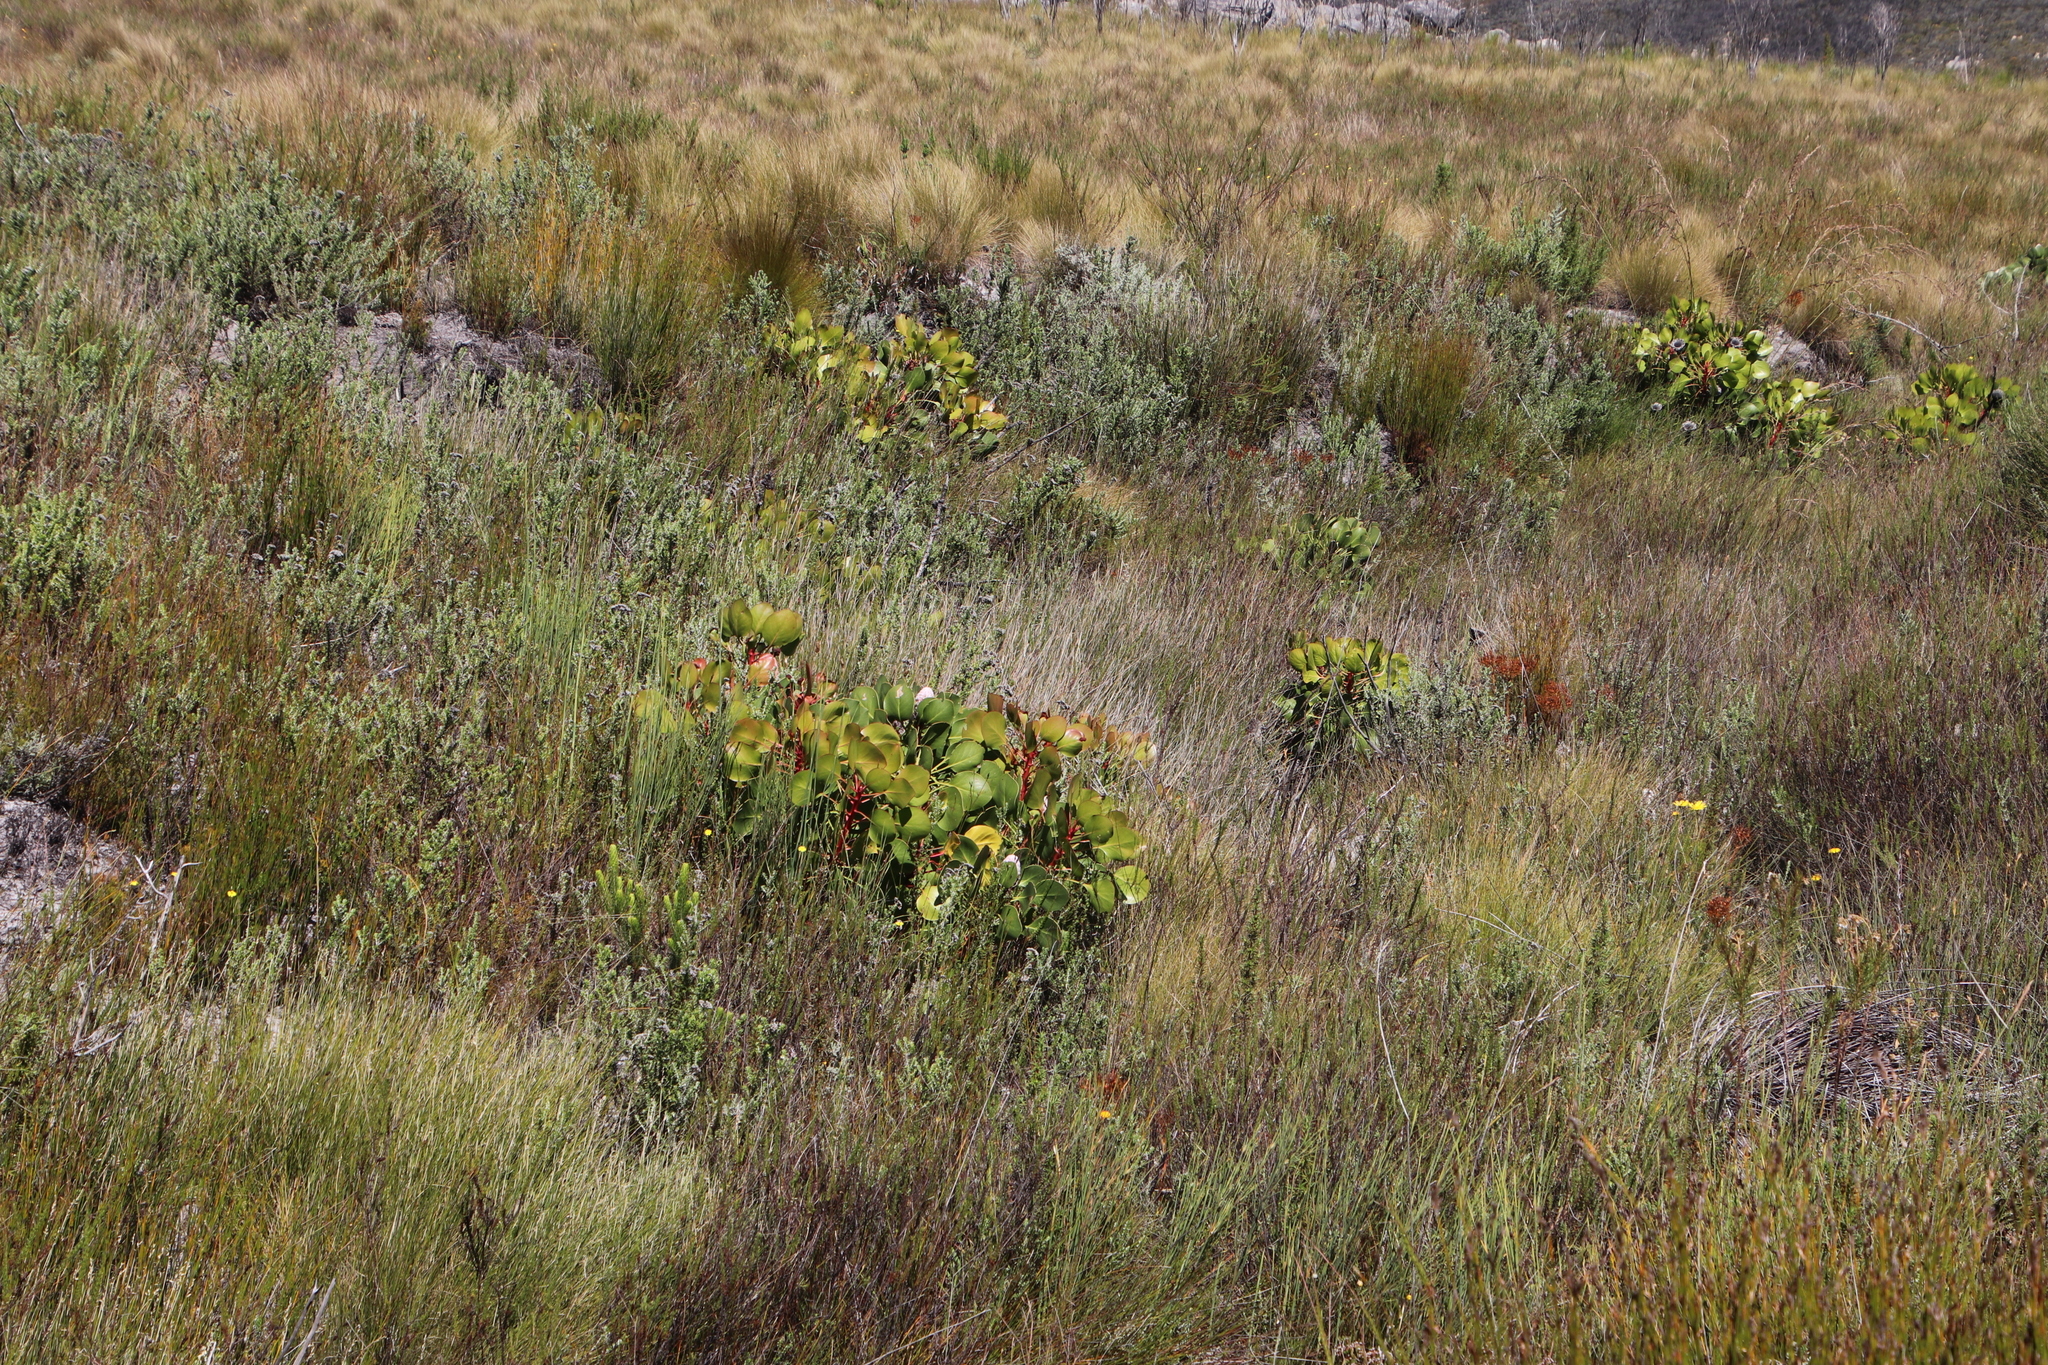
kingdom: Plantae
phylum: Tracheophyta
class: Magnoliopsida
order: Proteales
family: Proteaceae
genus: Protea
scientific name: Protea cynaroides
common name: King protea
